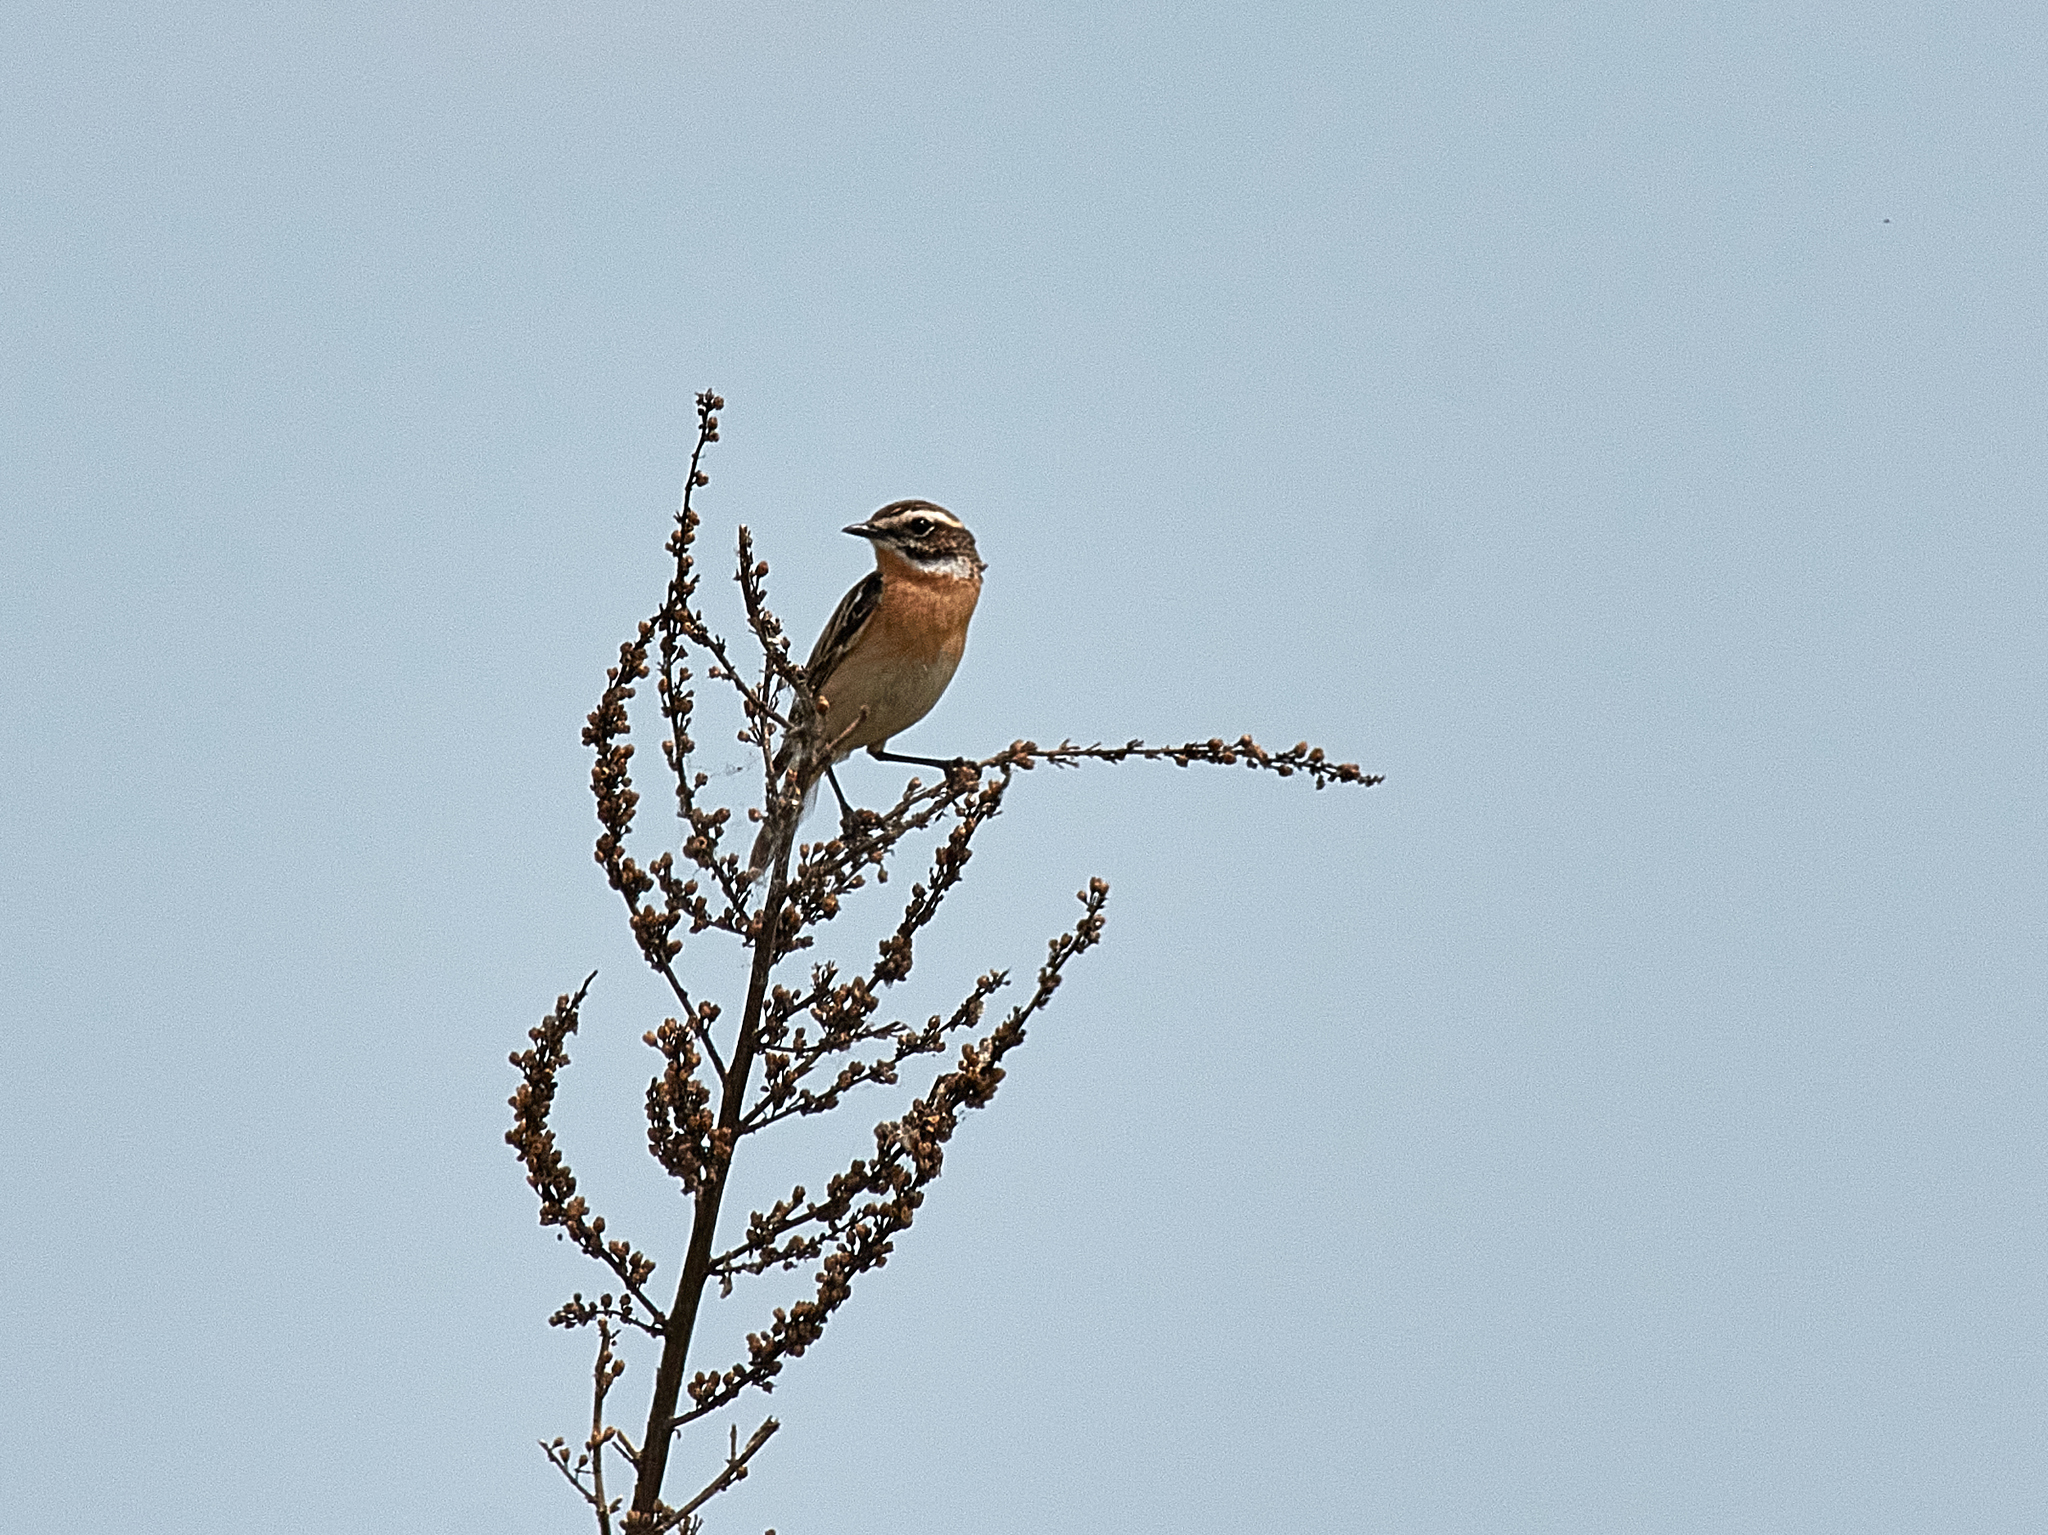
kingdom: Animalia
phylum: Chordata
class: Aves
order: Passeriformes
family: Muscicapidae
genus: Saxicola
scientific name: Saxicola rubetra
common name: Whinchat
